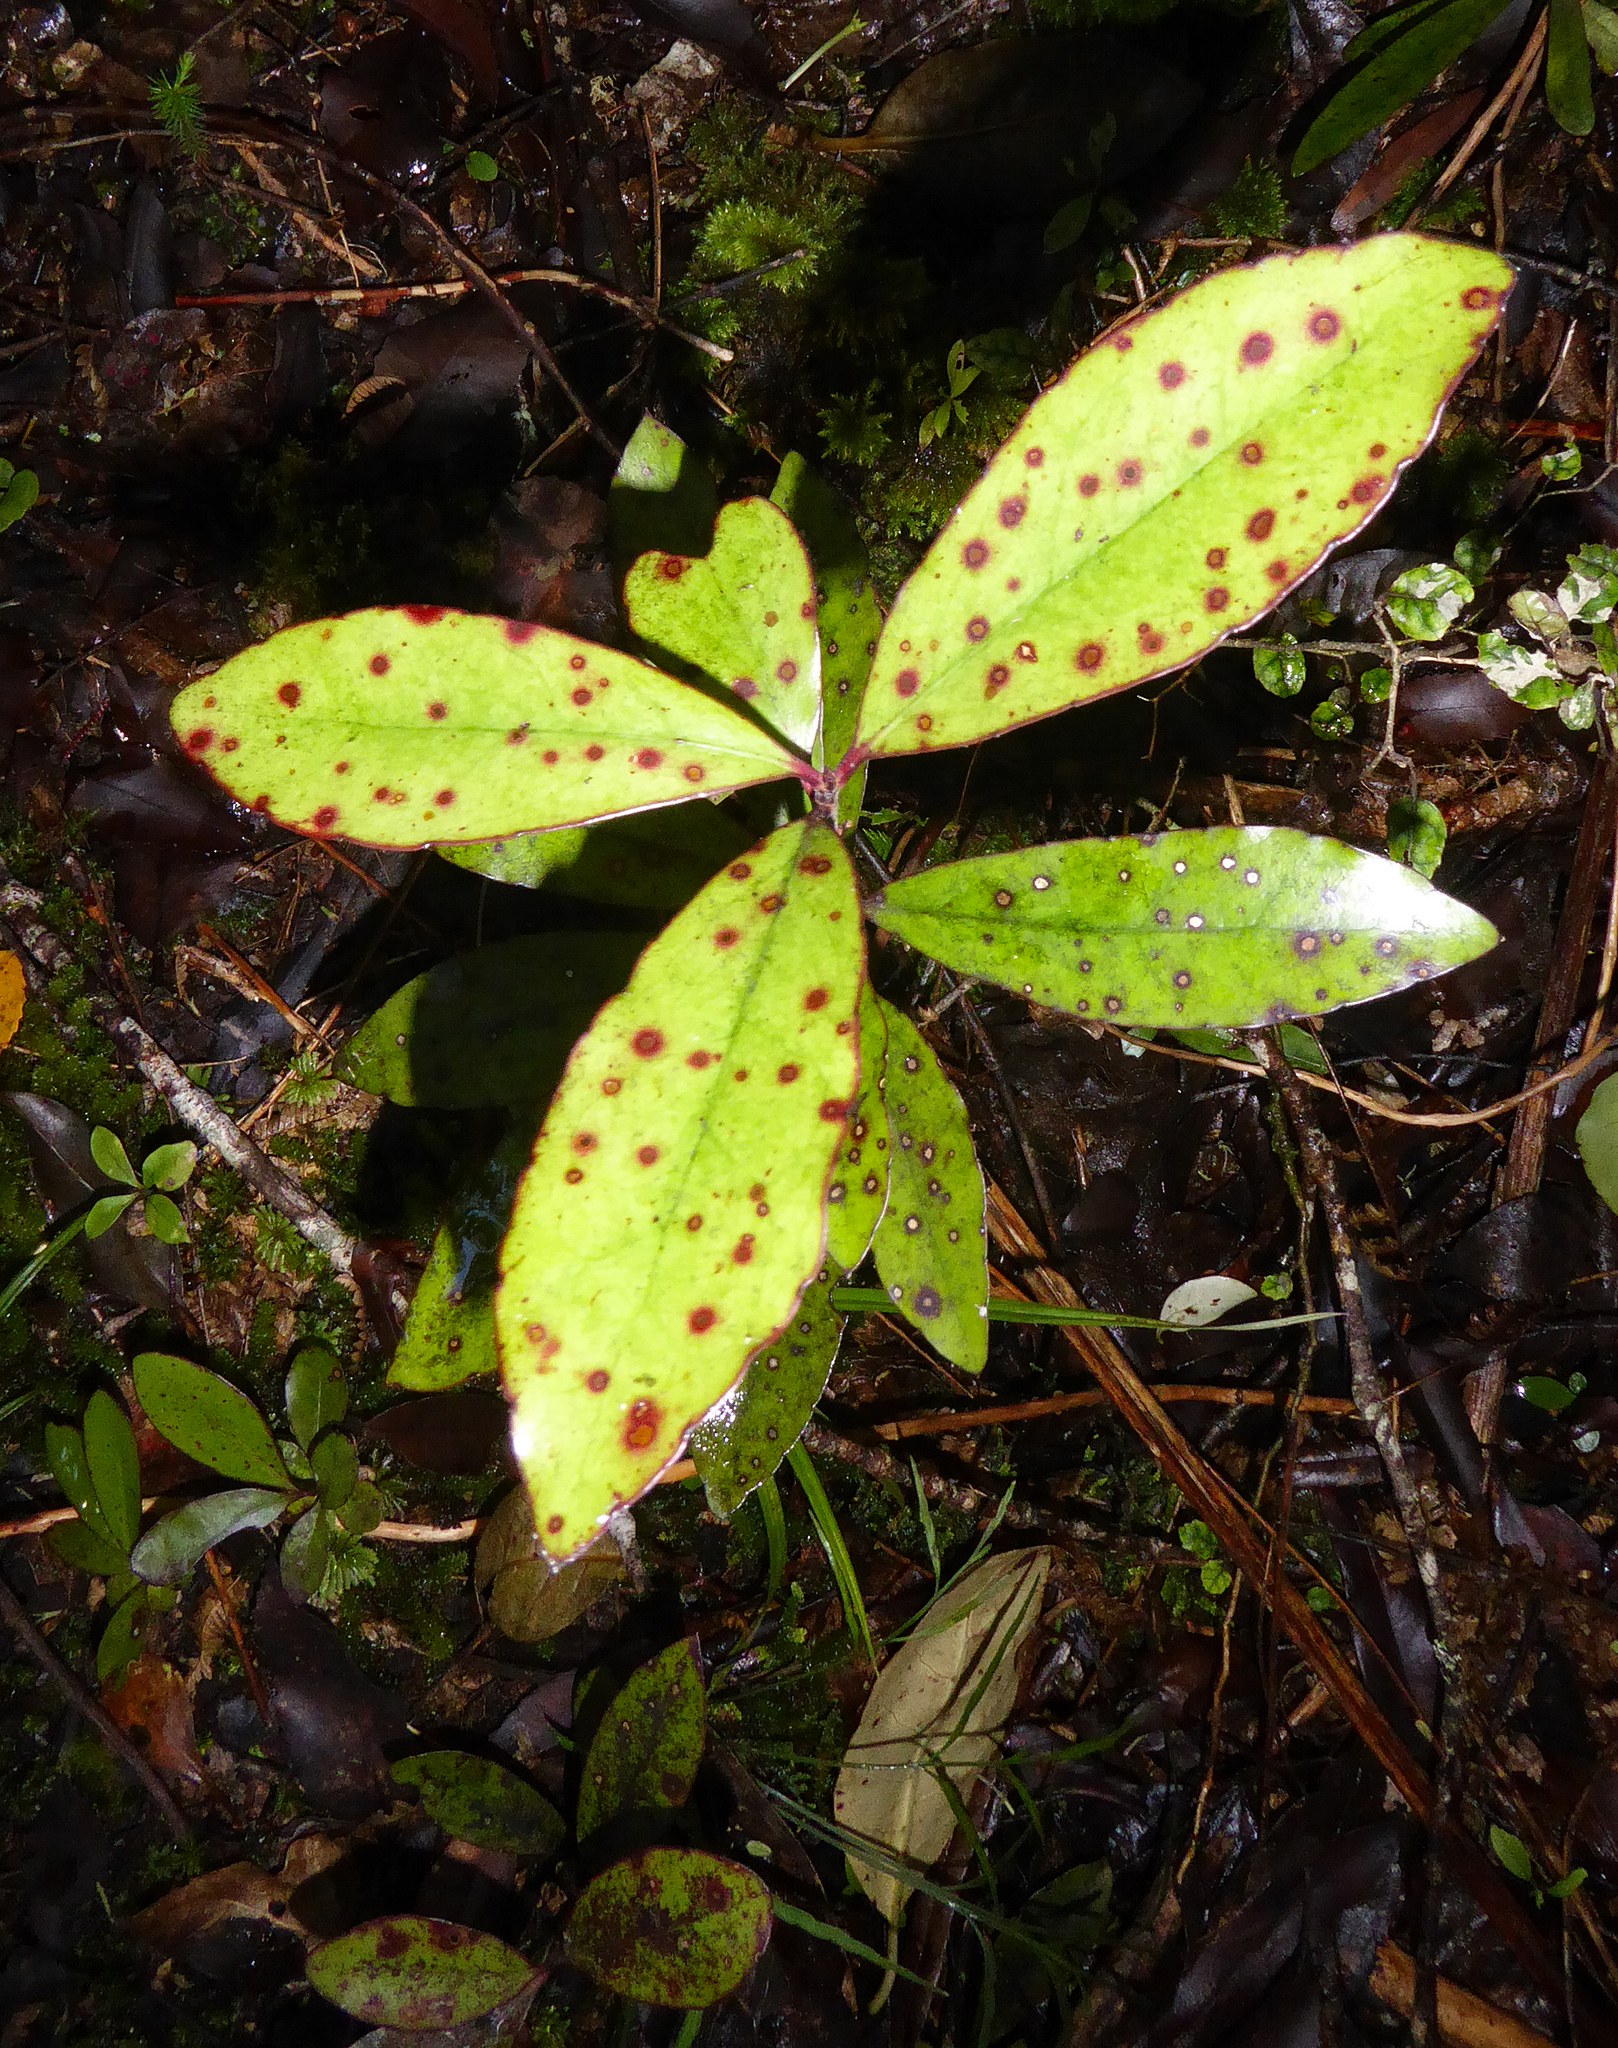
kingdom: Plantae
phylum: Tracheophyta
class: Magnoliopsida
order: Asterales
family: Alseuosmiaceae
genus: Alseuosmia
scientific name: Alseuosmia pusilla
